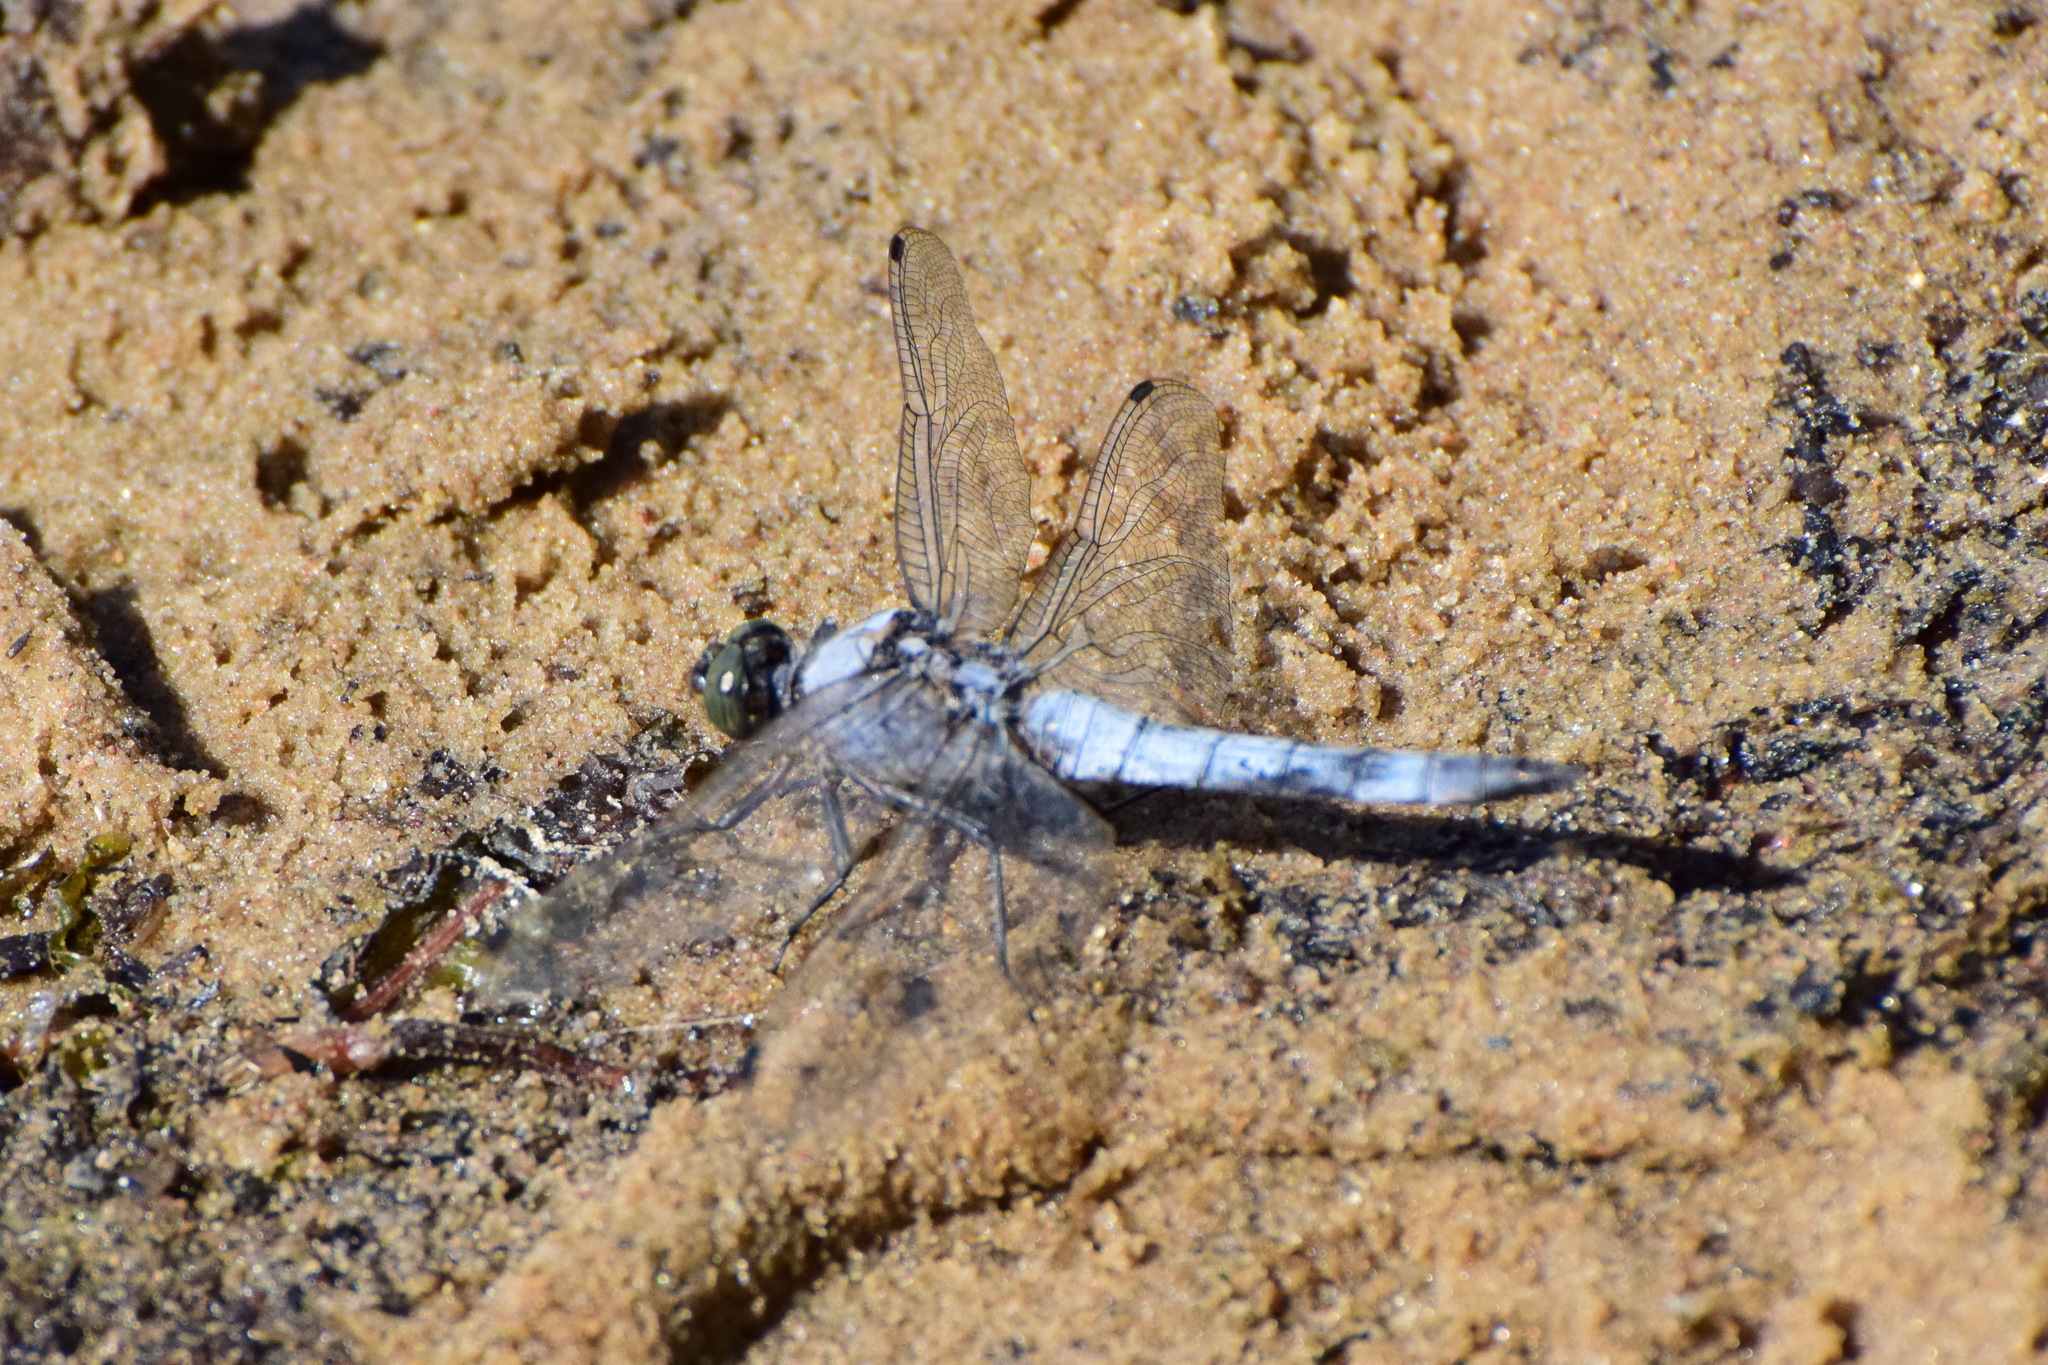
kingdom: Animalia
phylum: Arthropoda
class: Insecta
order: Odonata
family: Libellulidae
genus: Orthetrum
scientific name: Orthetrum cancellatum
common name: Black-tailed skimmer
